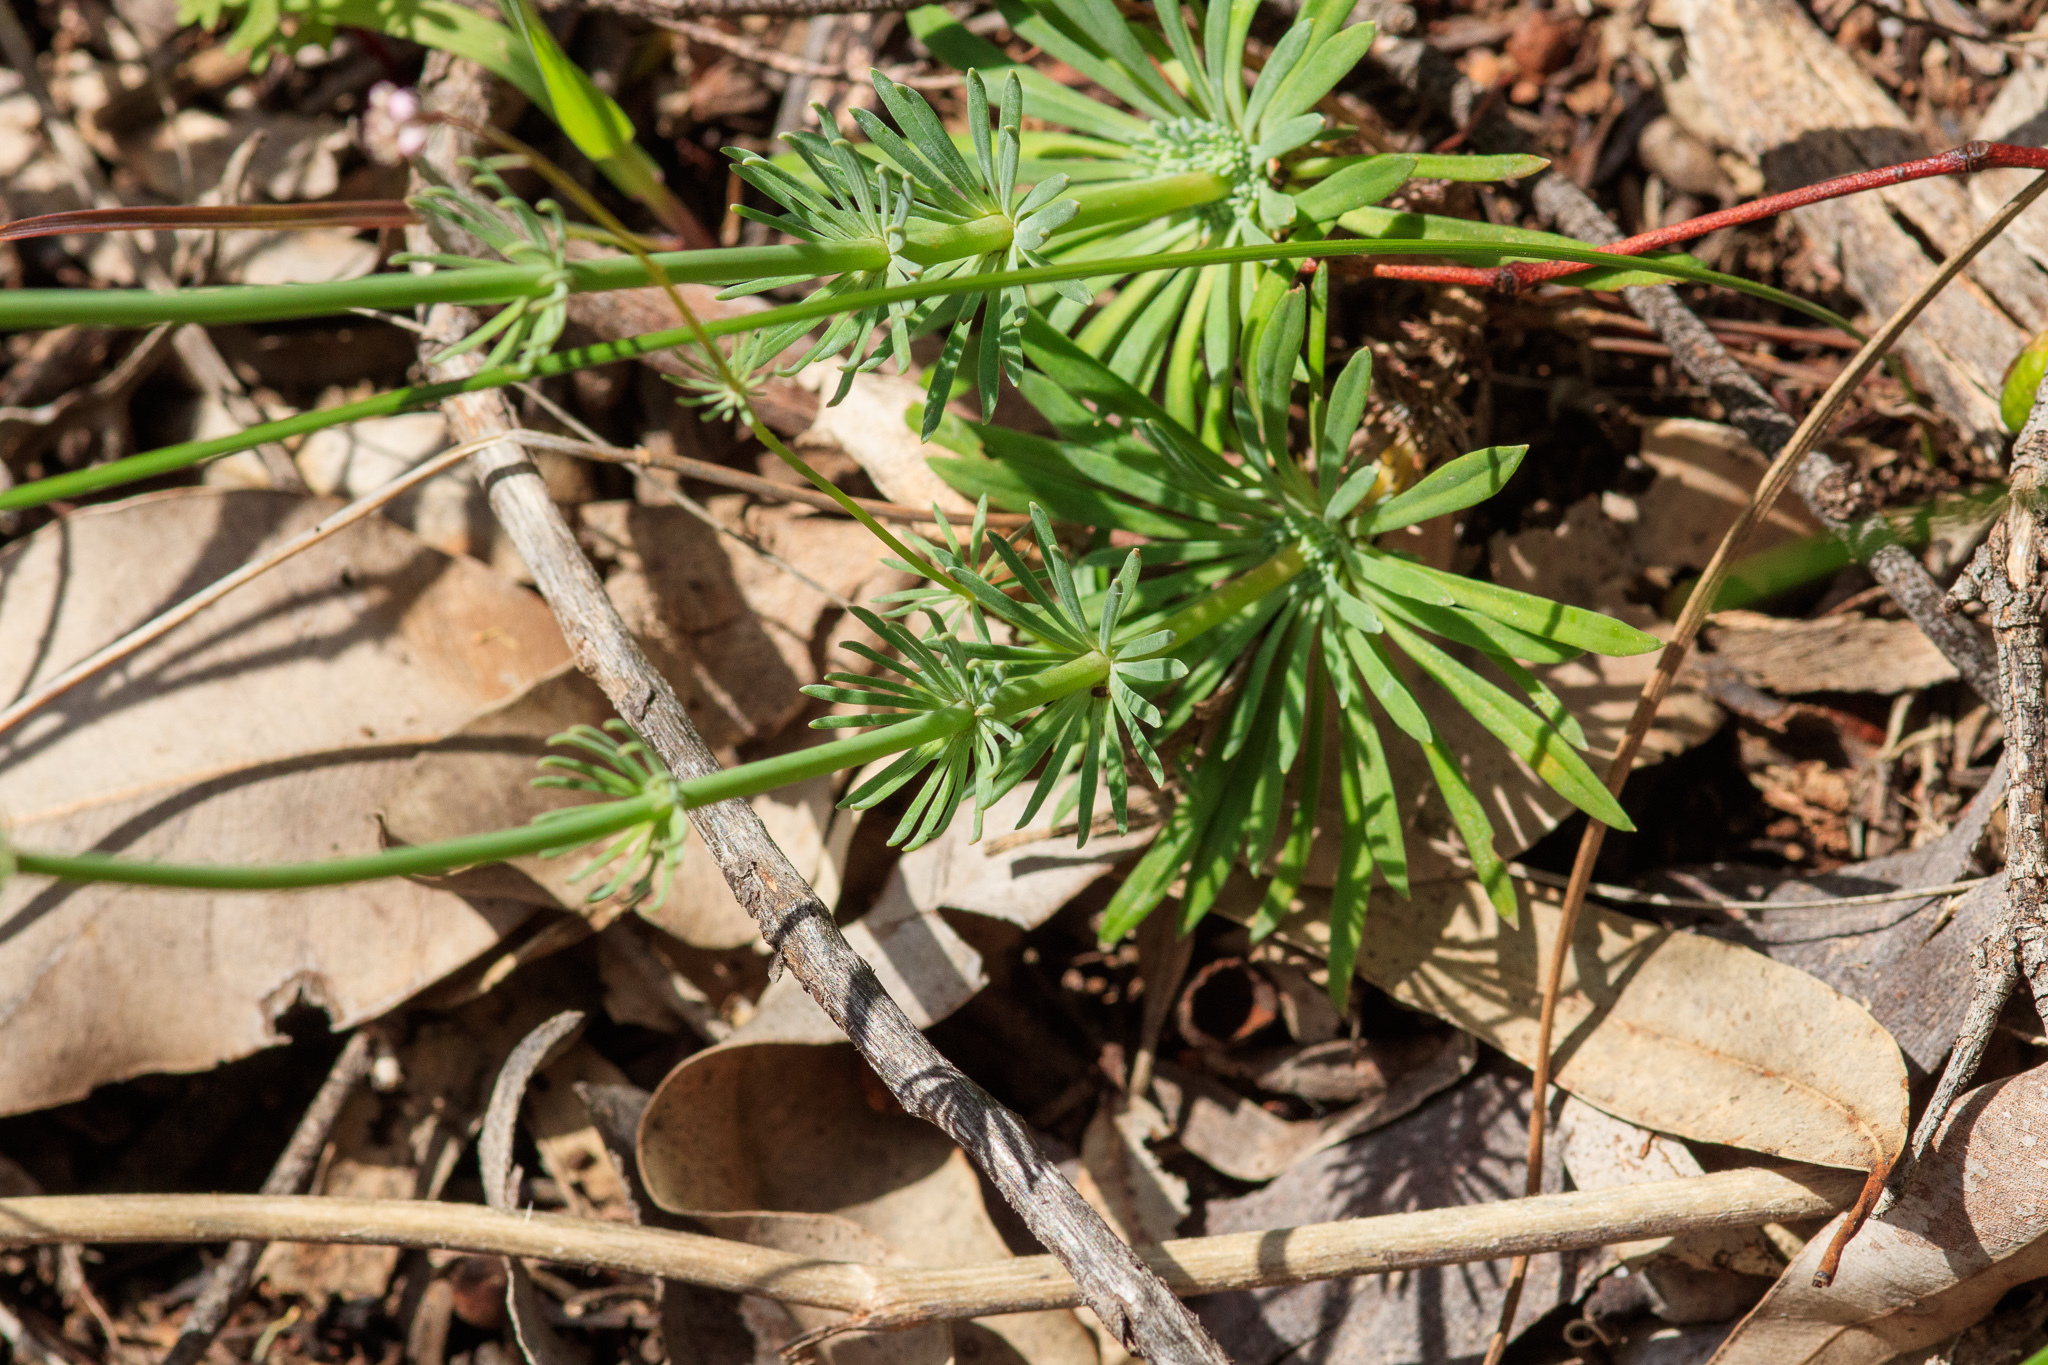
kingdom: Plantae
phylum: Tracheophyta
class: Magnoliopsida
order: Asterales
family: Stylidiaceae
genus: Stylidium
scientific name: Stylidium brunonianum
